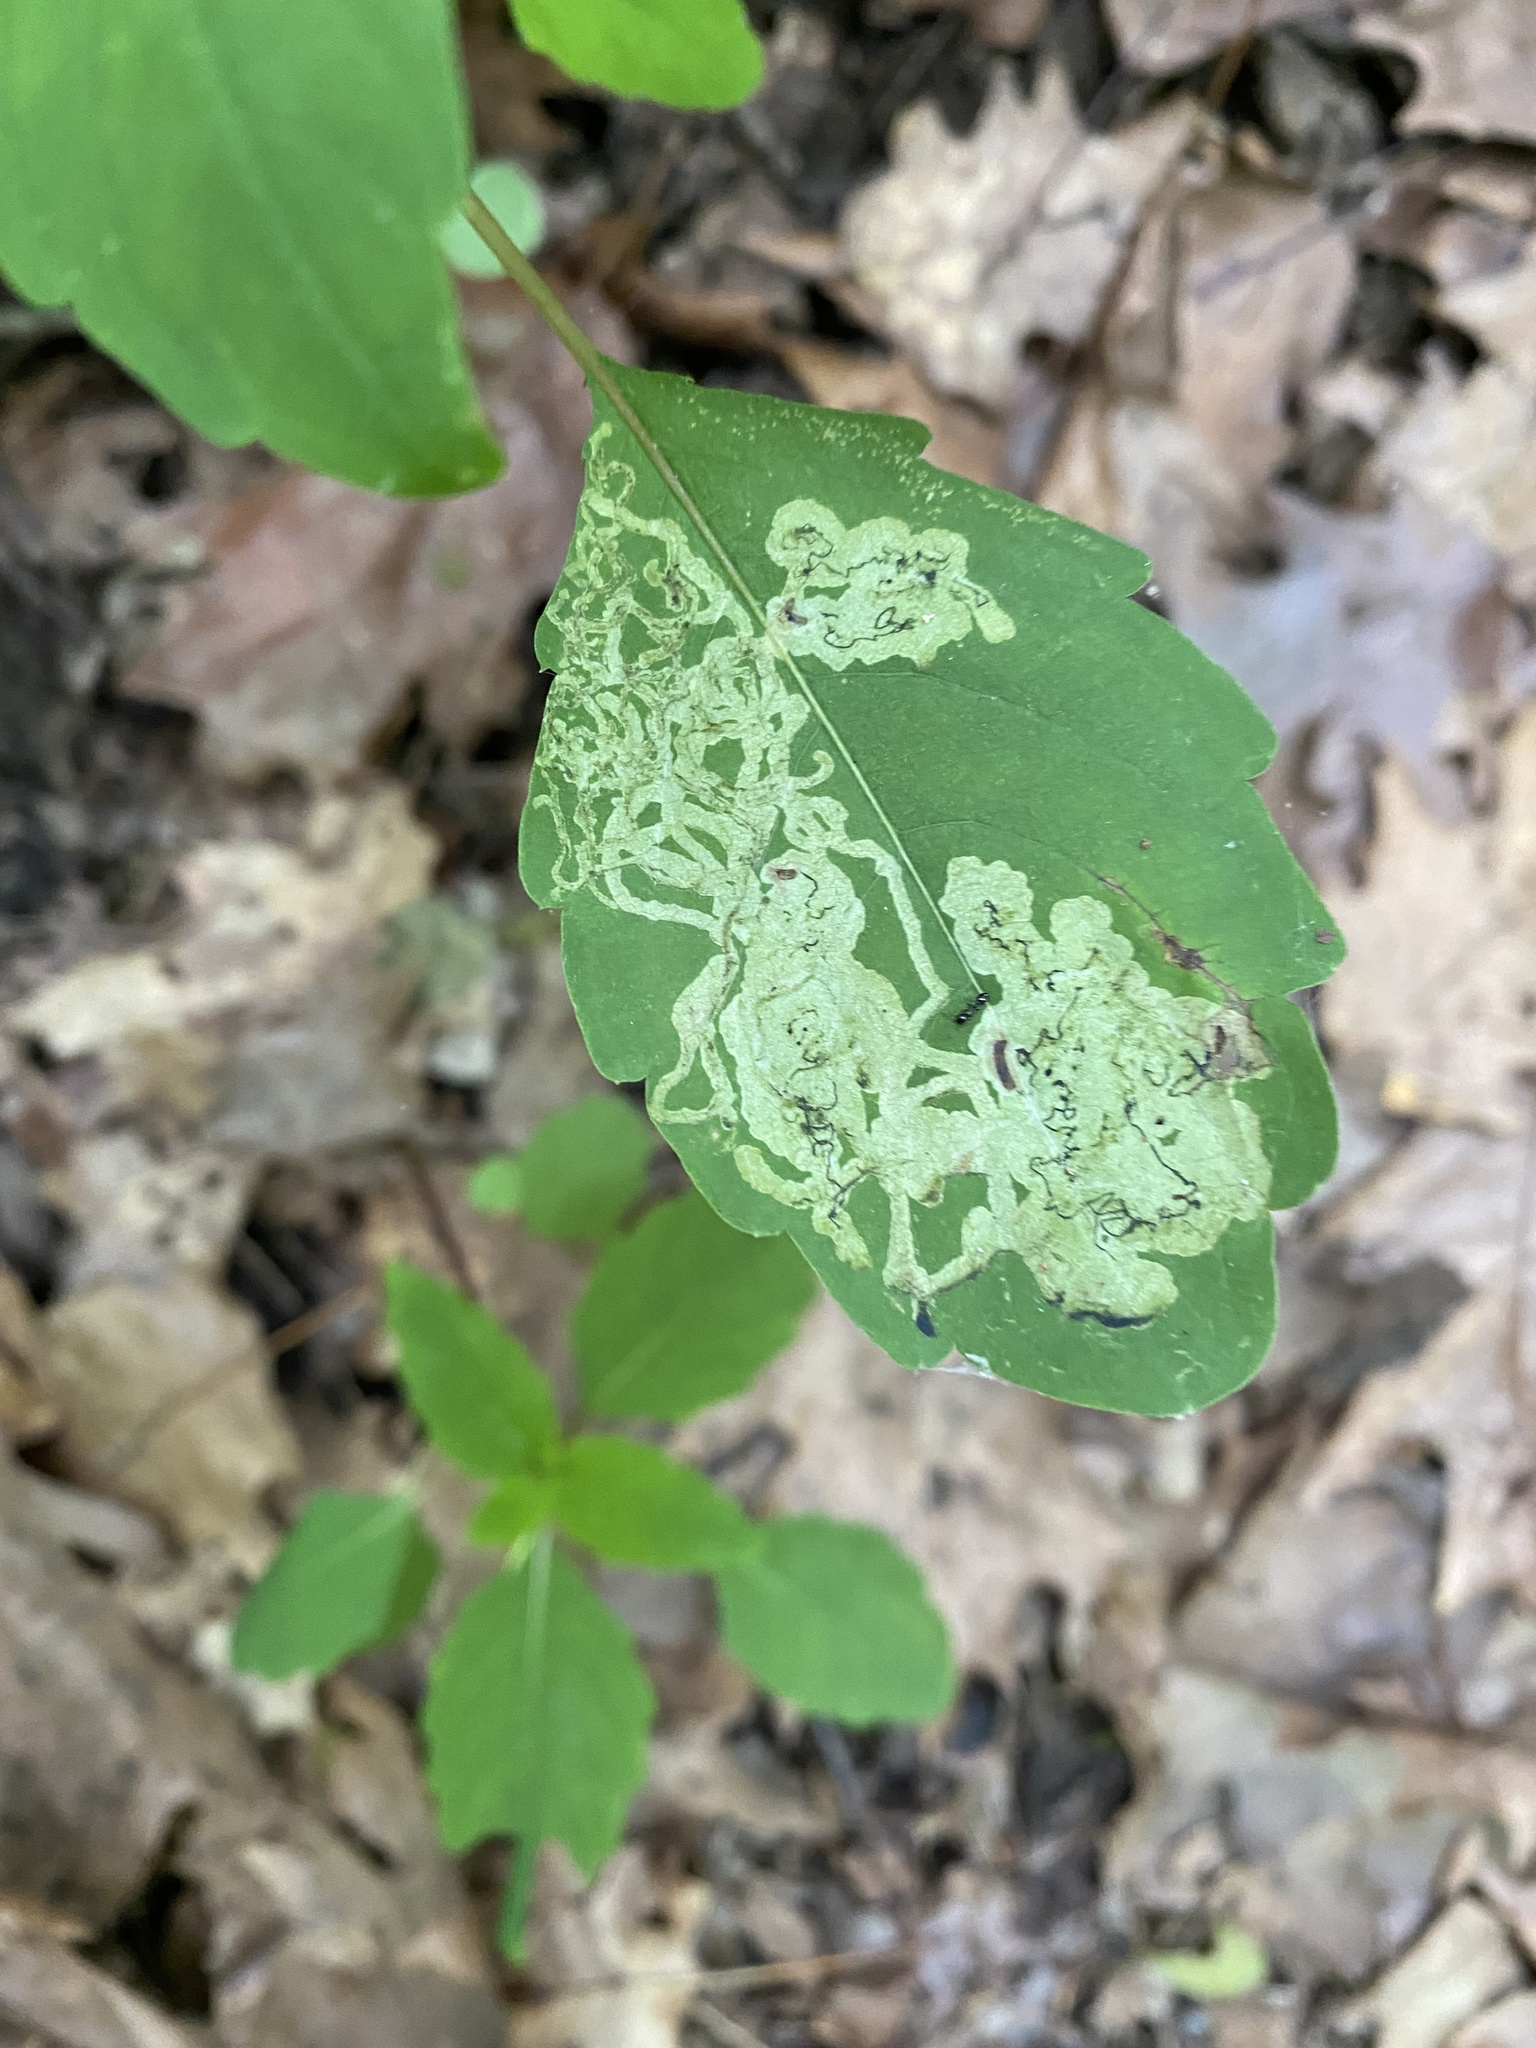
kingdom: Animalia
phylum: Arthropoda
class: Insecta
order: Diptera
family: Agromyzidae
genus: Phytoliriomyza
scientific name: Phytoliriomyza melampyga
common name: Jewelweed leaf-miner fly
